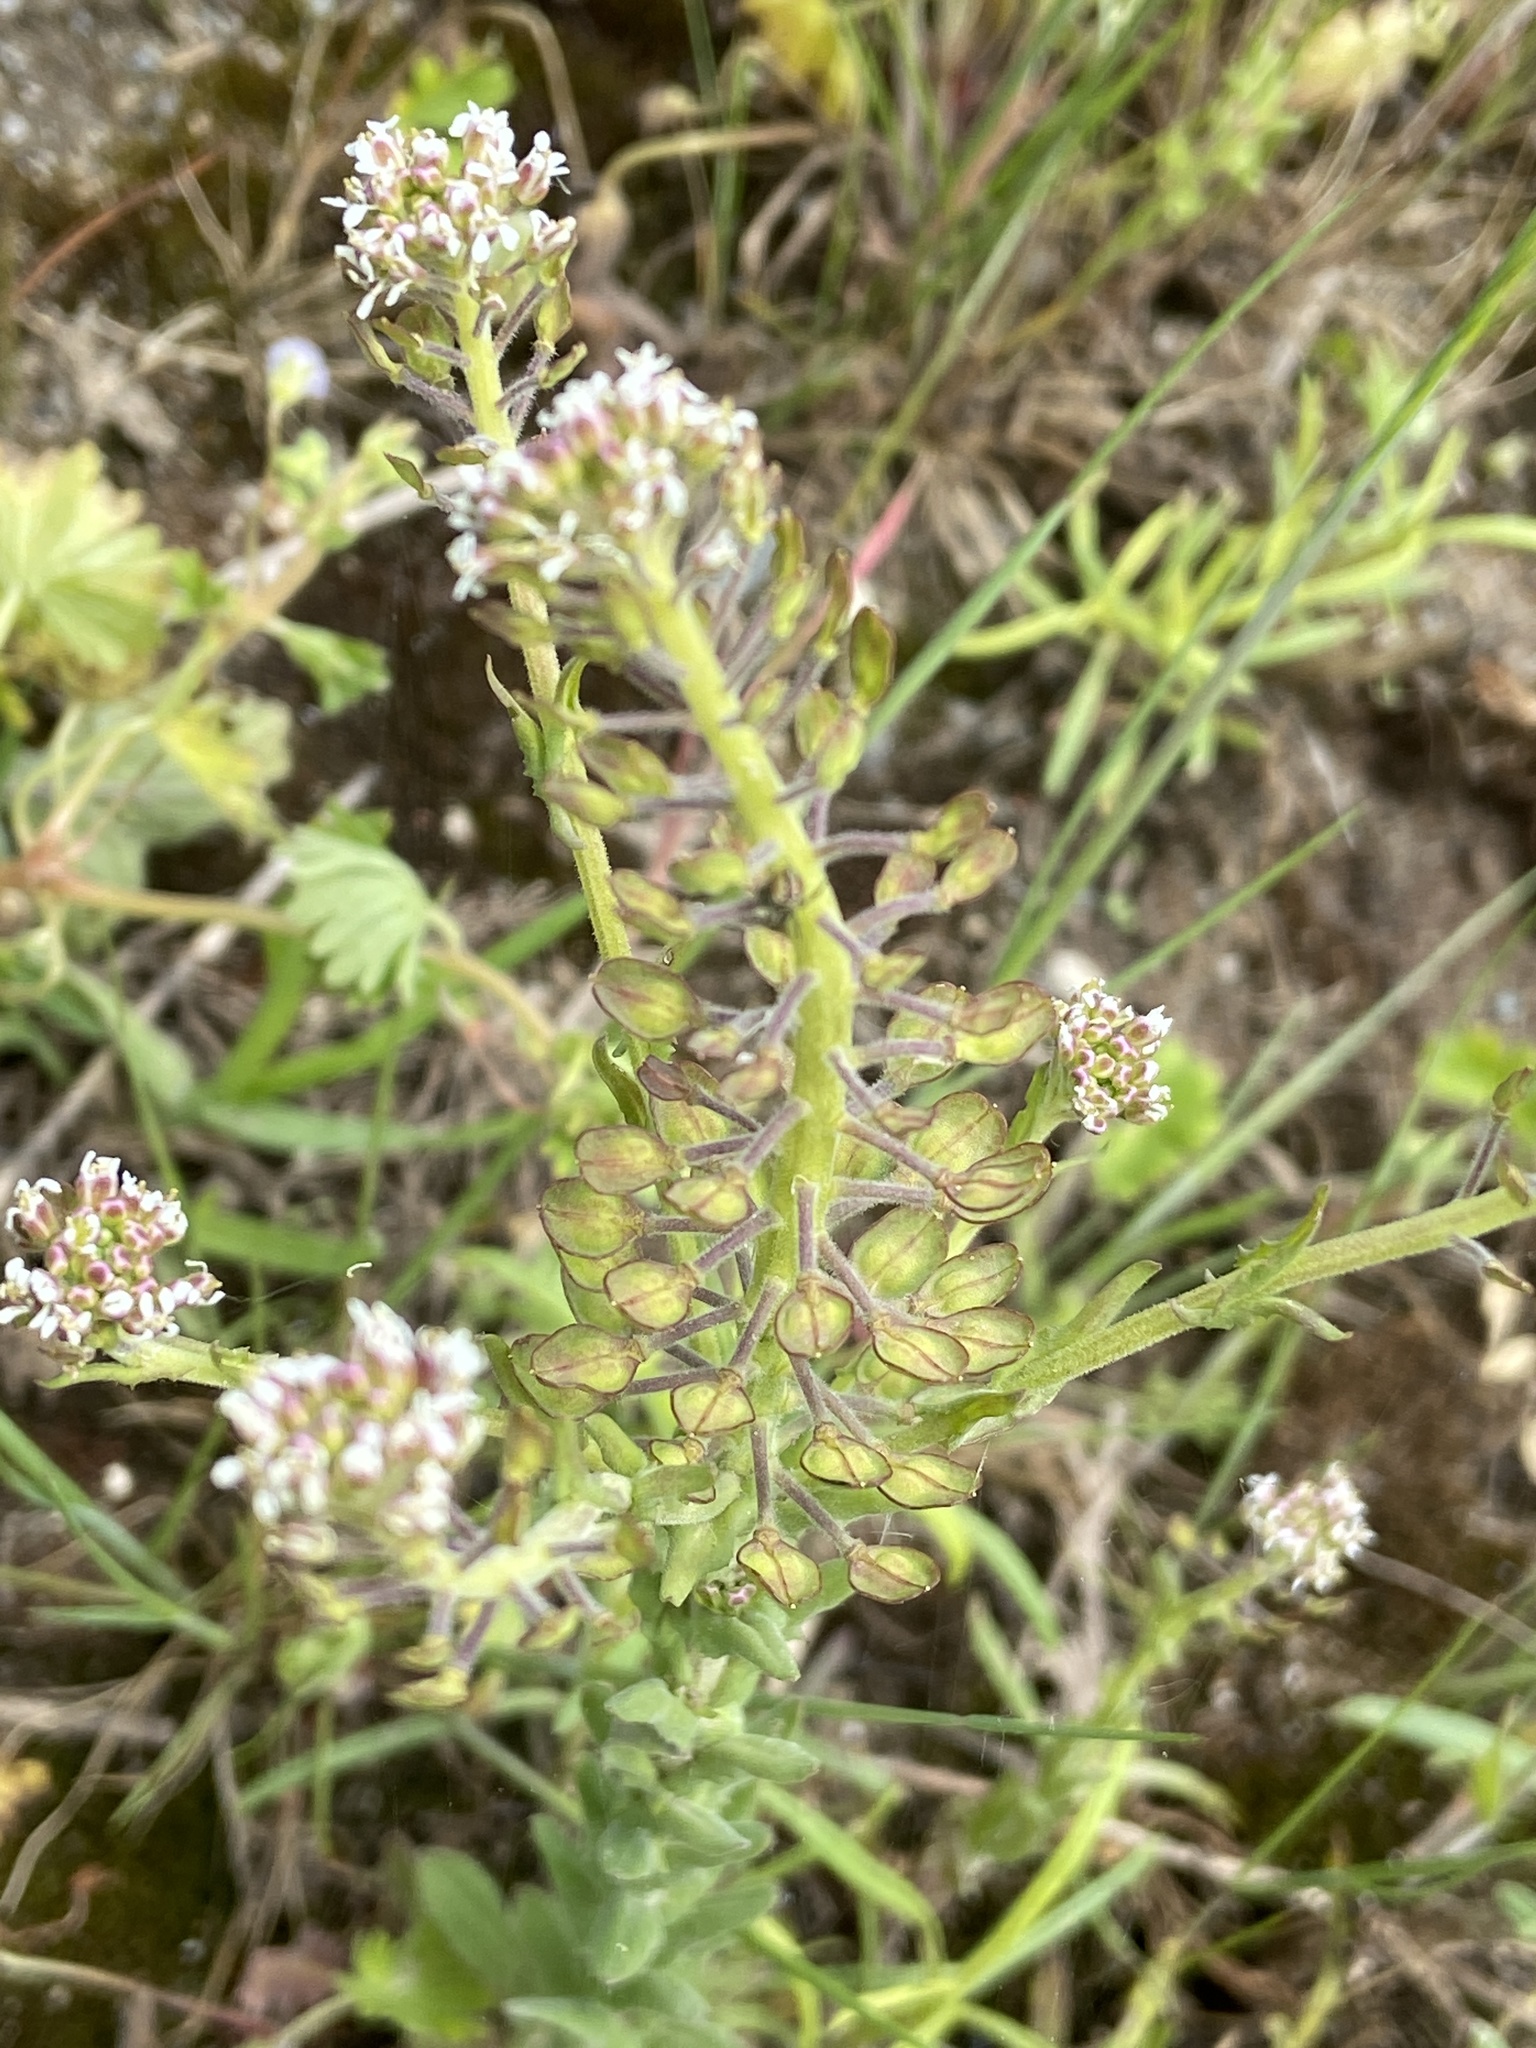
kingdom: Plantae
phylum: Tracheophyta
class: Magnoliopsida
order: Brassicales
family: Brassicaceae
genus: Lepidium
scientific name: Lepidium campestre
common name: Field pepperwort
